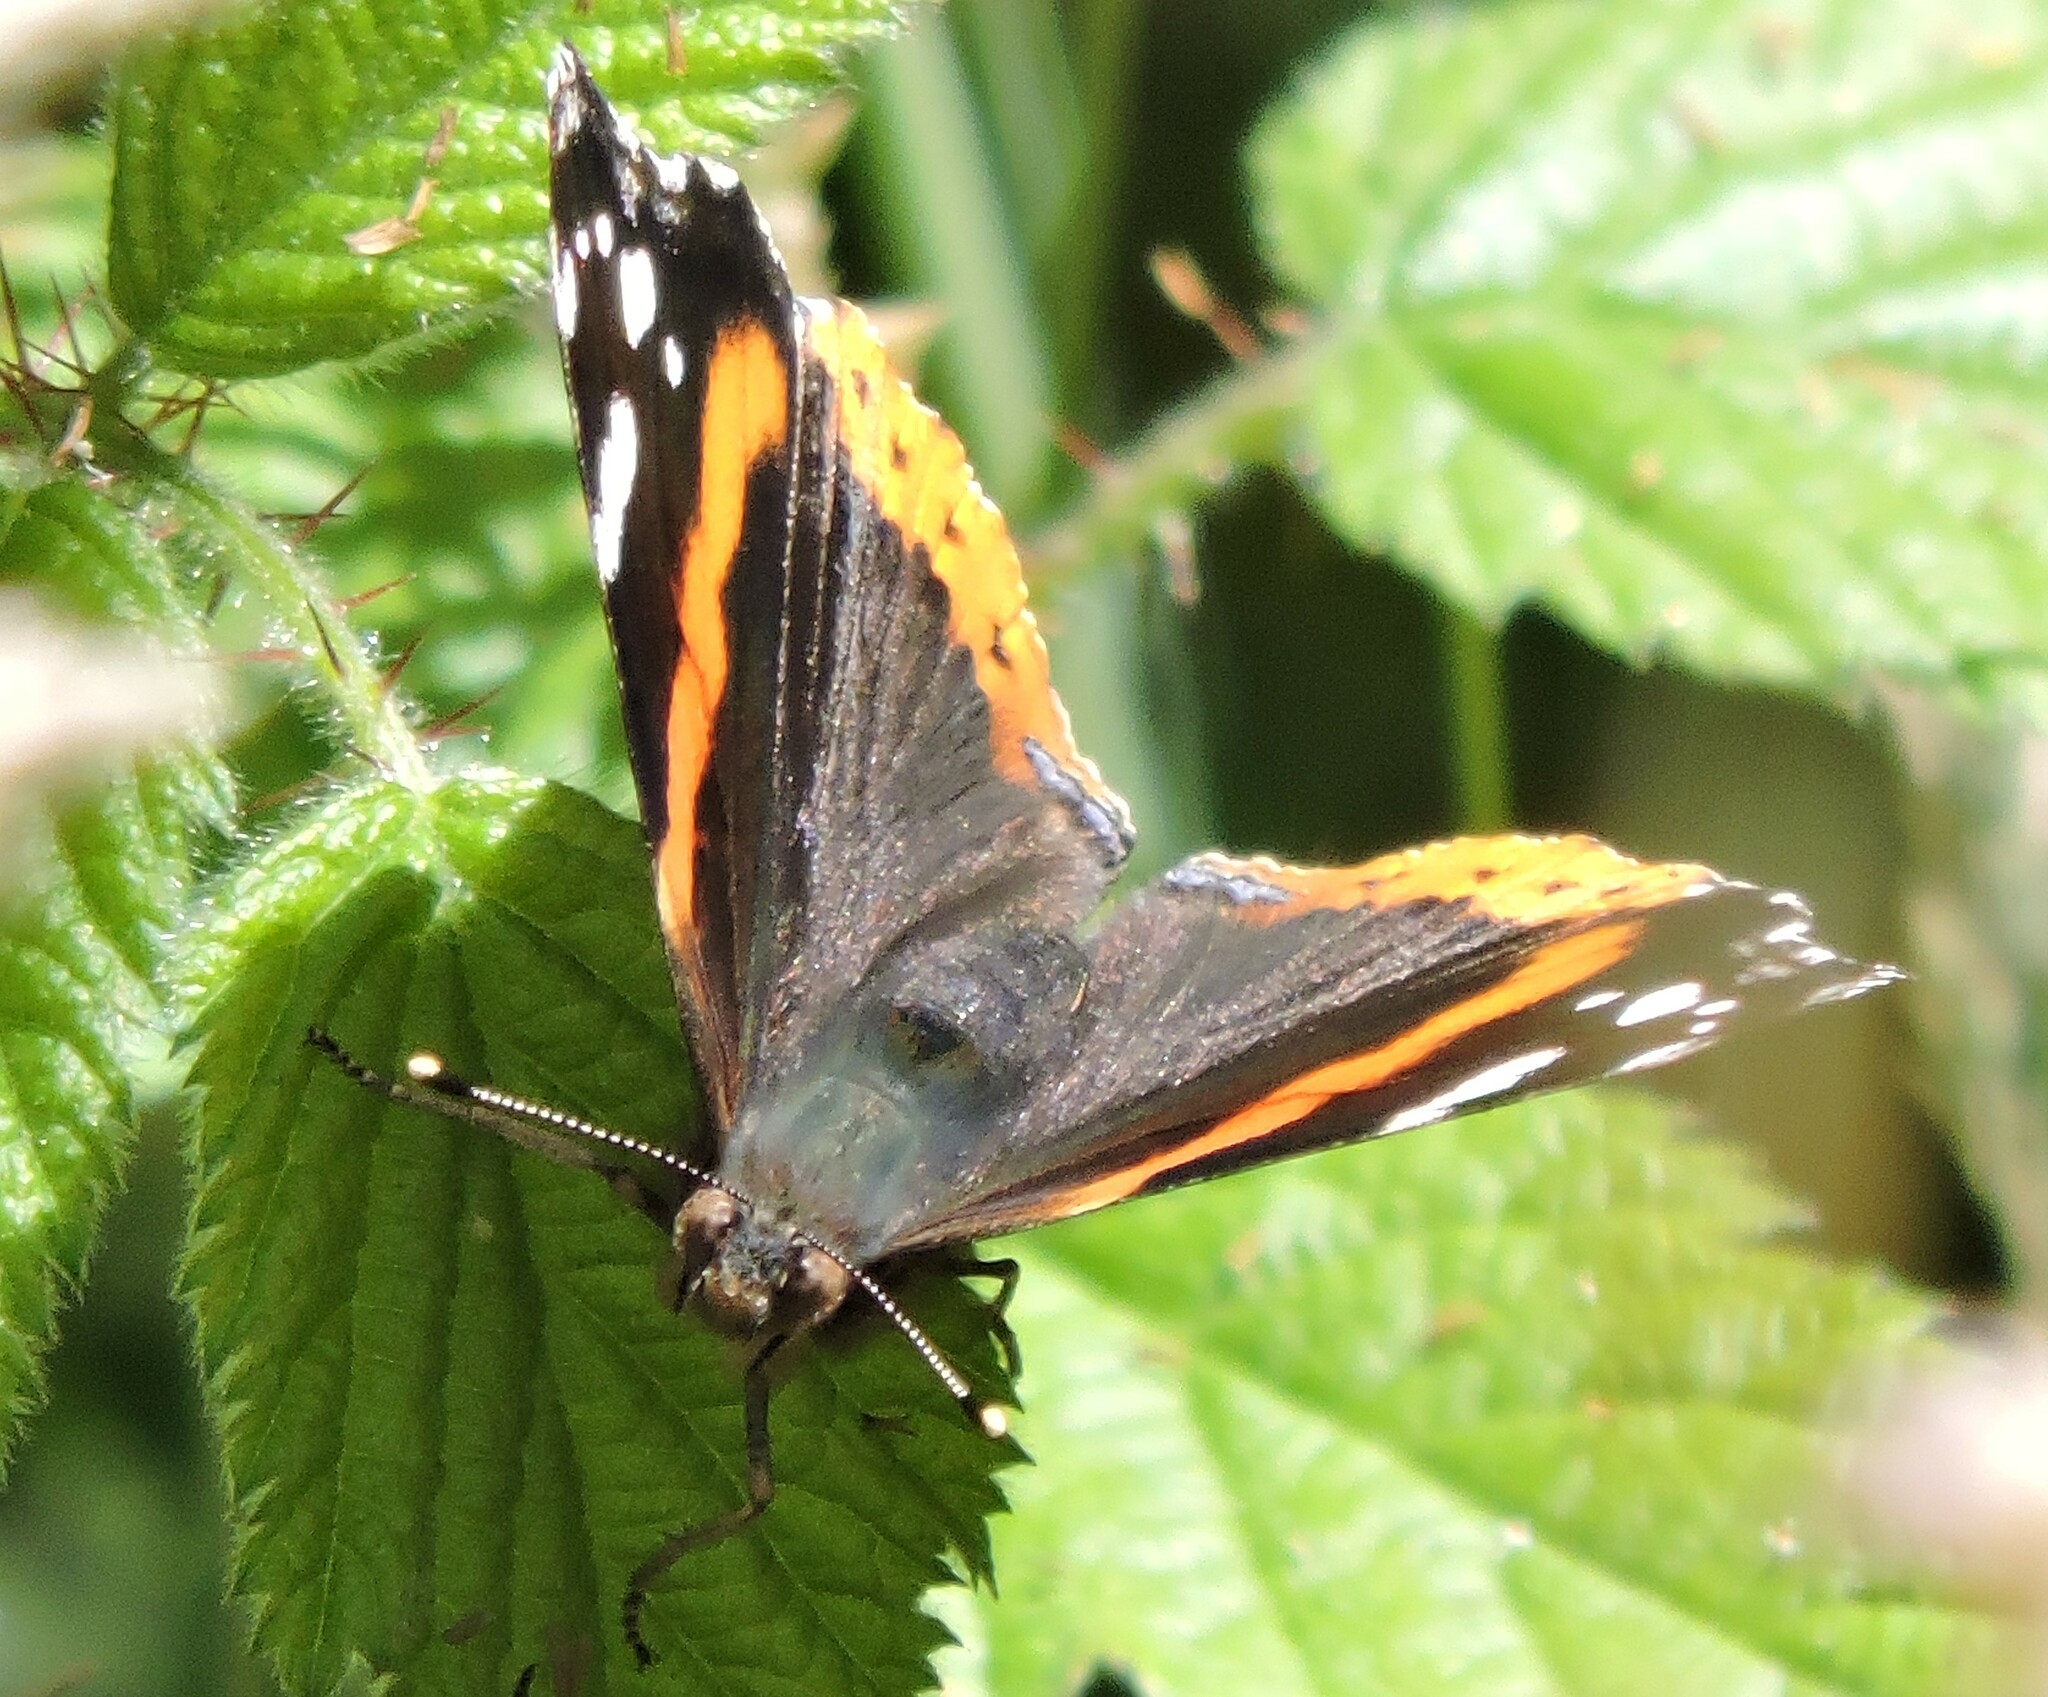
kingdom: Animalia
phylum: Arthropoda
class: Insecta
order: Lepidoptera
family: Nymphalidae
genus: Vanessa
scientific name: Vanessa atalanta
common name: Red admiral
